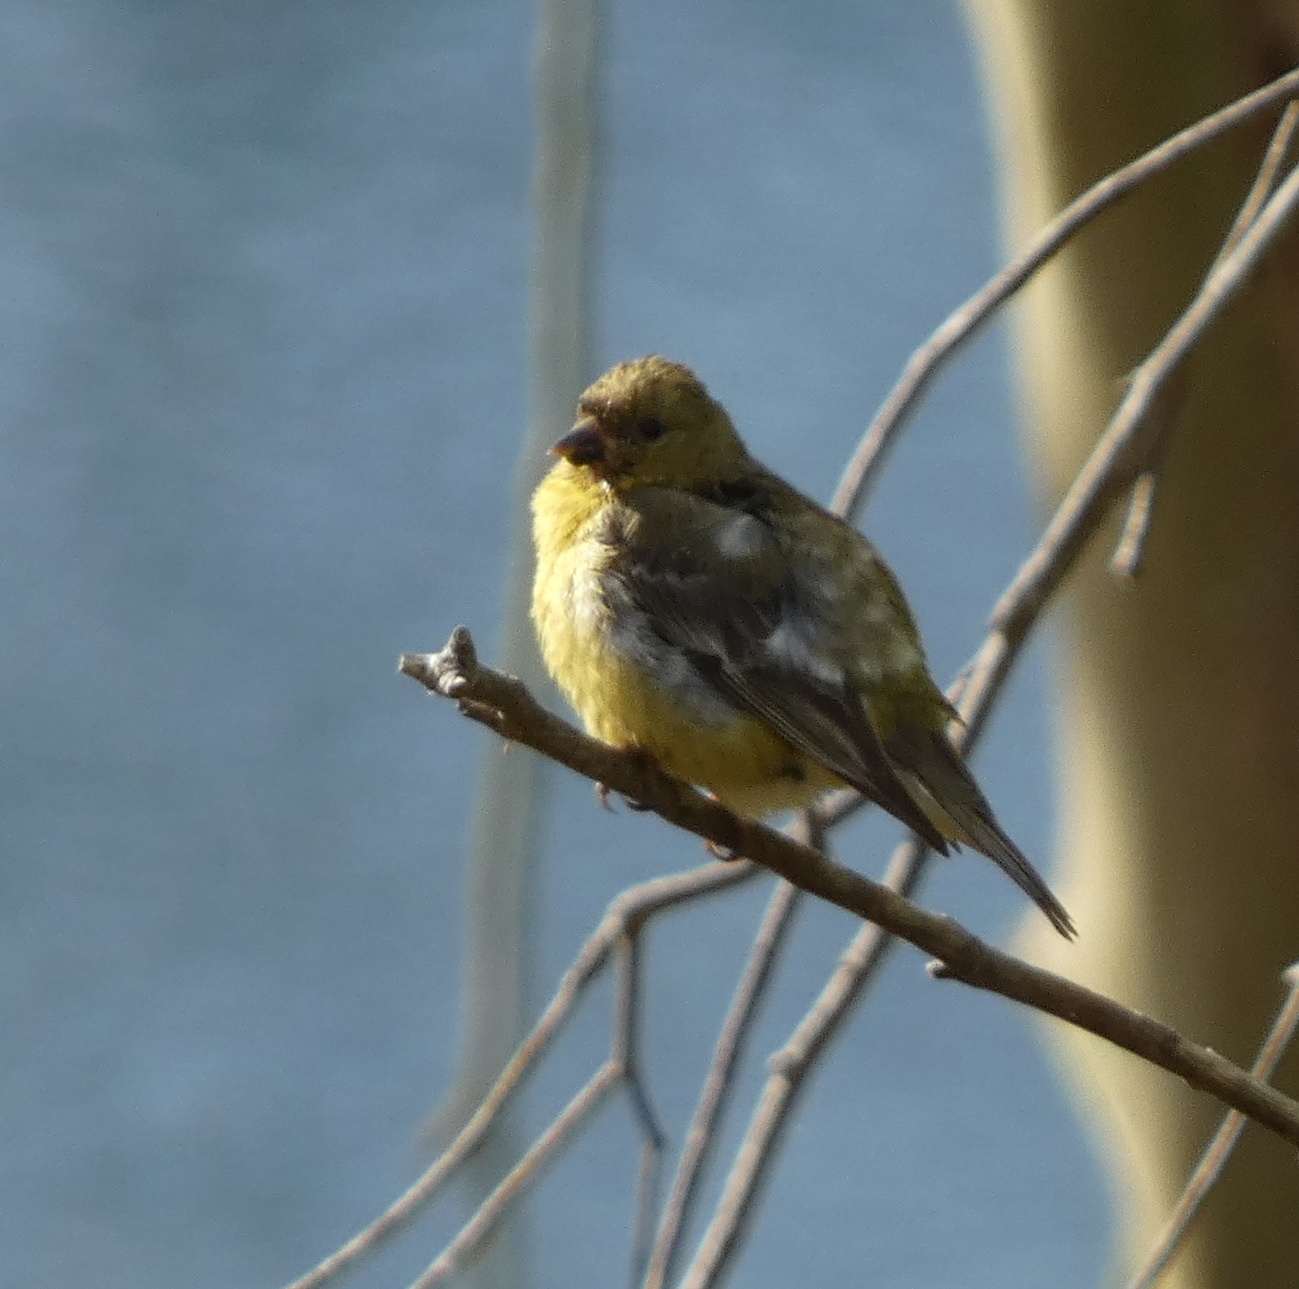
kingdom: Animalia
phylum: Chordata
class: Aves
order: Passeriformes
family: Fringillidae
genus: Spinus
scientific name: Spinus psaltria
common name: Lesser goldfinch
